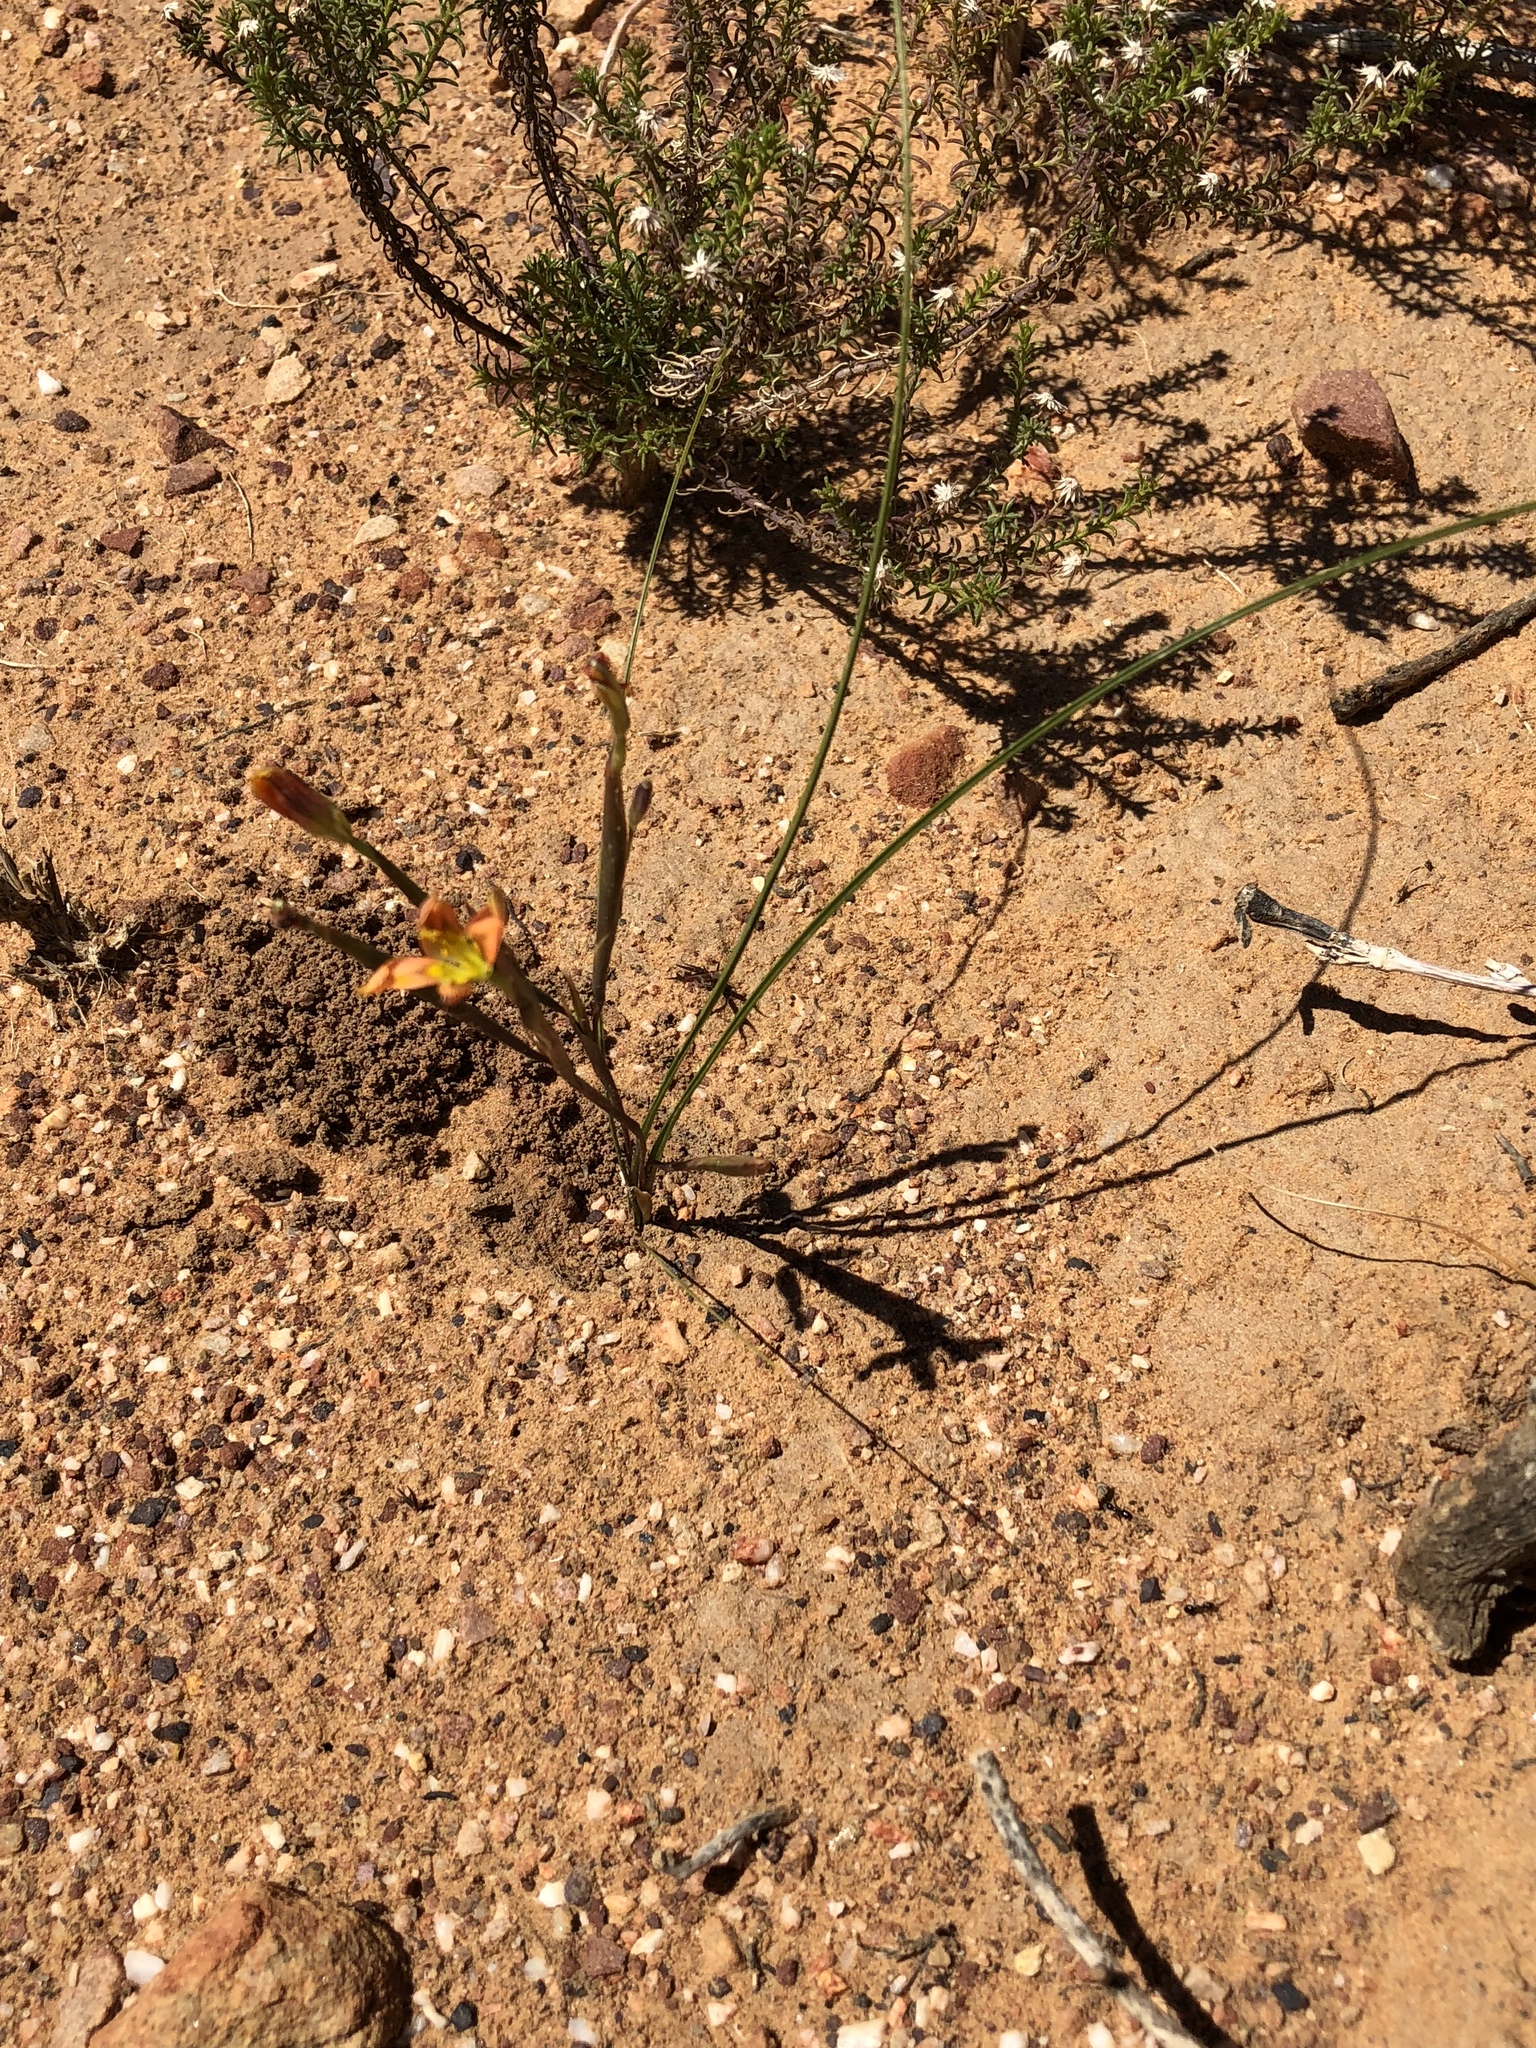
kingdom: Plantae
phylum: Tracheophyta
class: Liliopsida
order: Asparagales
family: Iridaceae
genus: Moraea
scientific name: Moraea bifida
